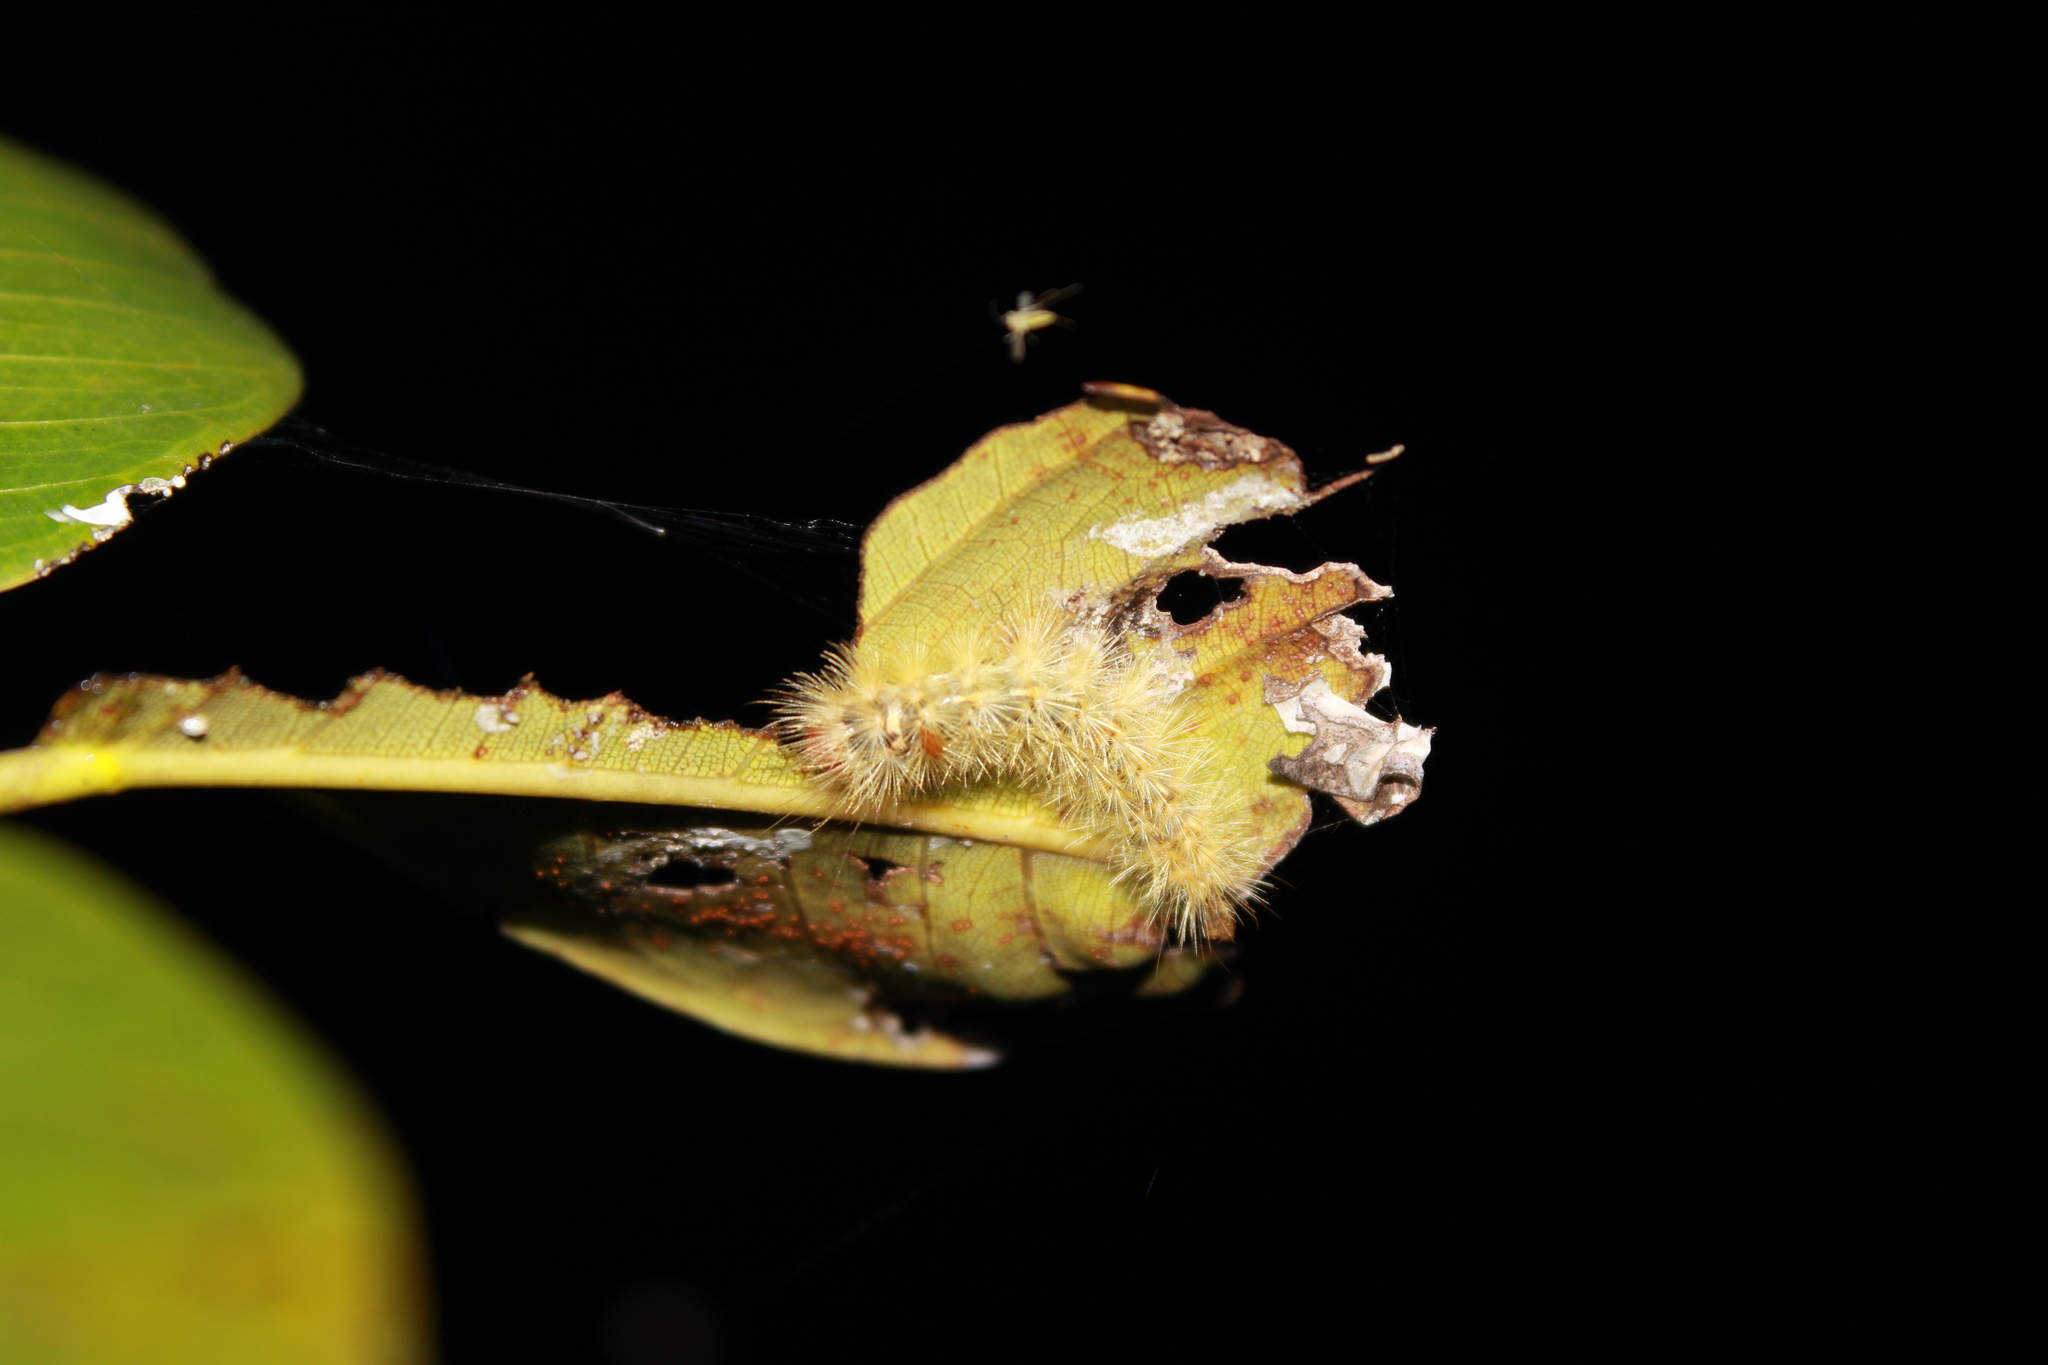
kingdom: Animalia
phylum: Arthropoda
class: Insecta
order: Lepidoptera
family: Erebidae
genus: Lymire
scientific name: Lymire edwardsii
